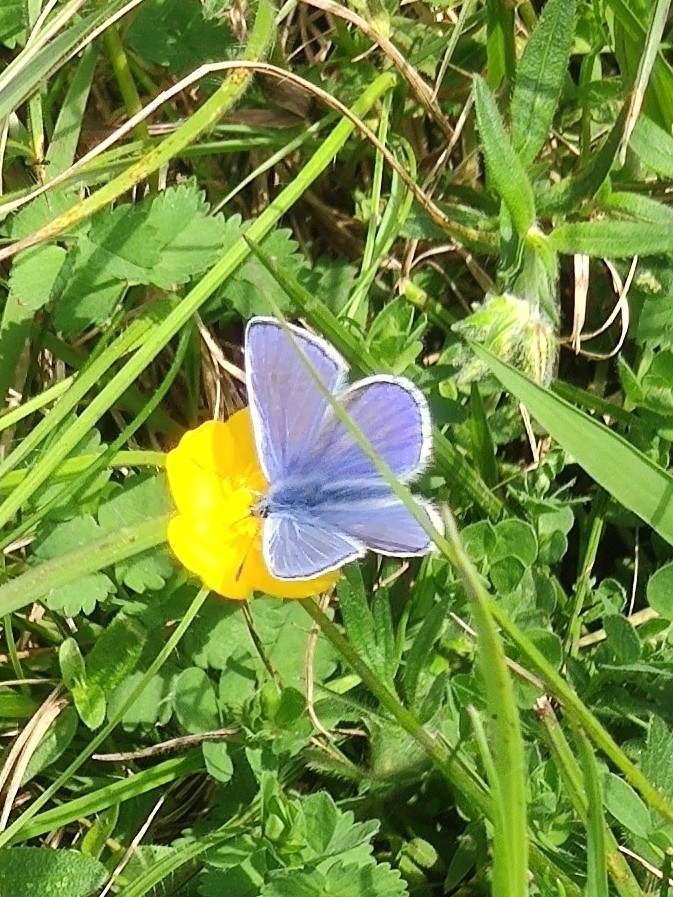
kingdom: Animalia
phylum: Arthropoda
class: Insecta
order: Lepidoptera
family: Lycaenidae
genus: Polyommatus
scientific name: Polyommatus icarus
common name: Common blue
